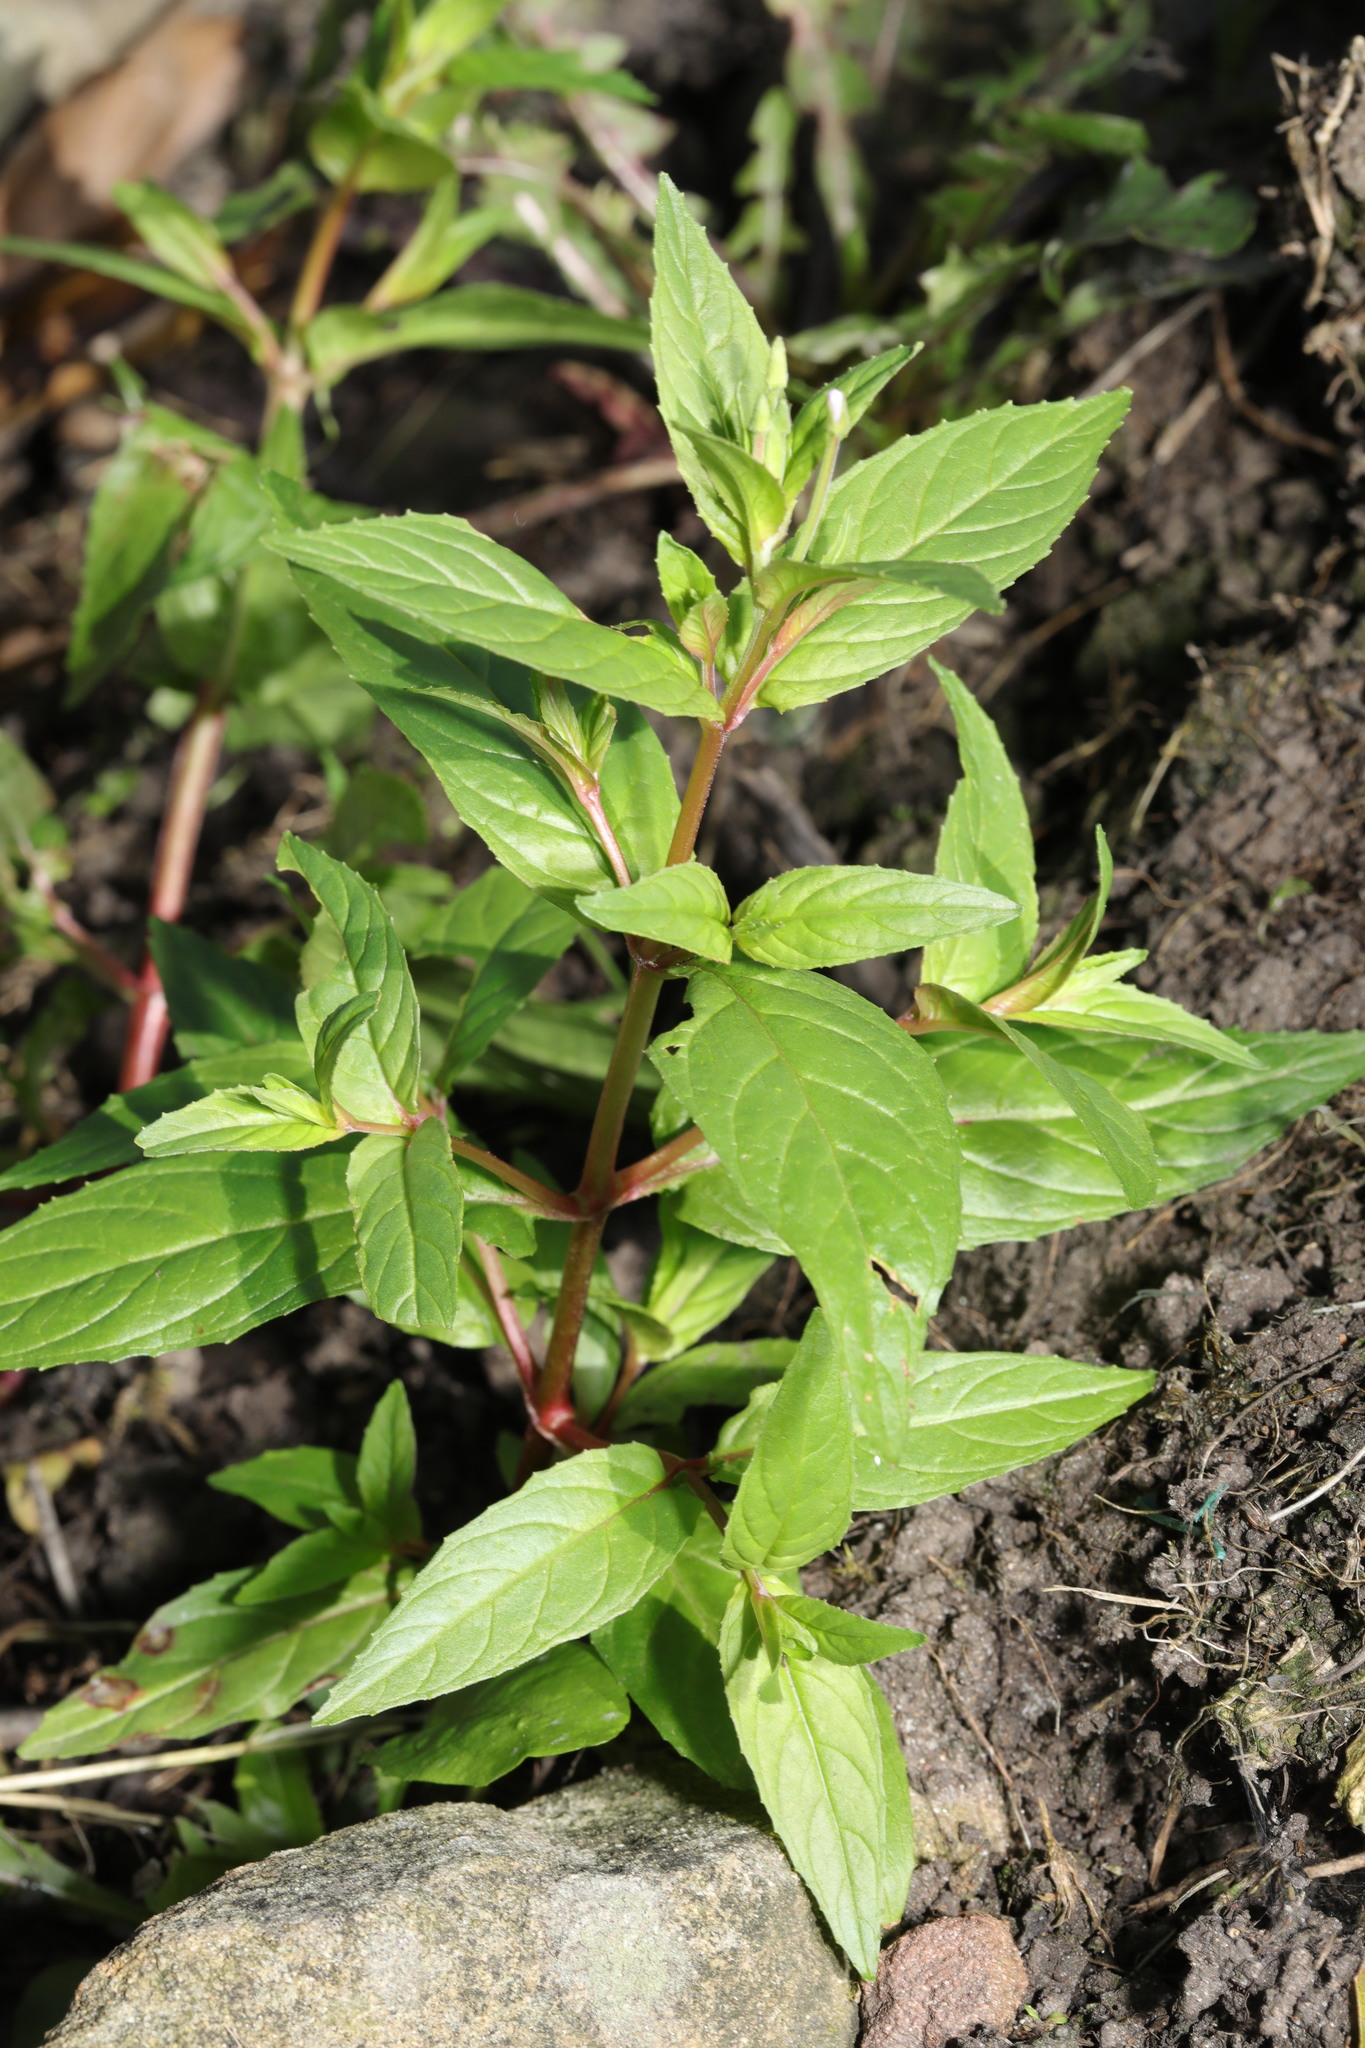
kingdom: Plantae
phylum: Tracheophyta
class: Magnoliopsida
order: Myrtales
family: Onagraceae
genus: Epilobium
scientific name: Epilobium montanum
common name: Broad-leaved willowherb
